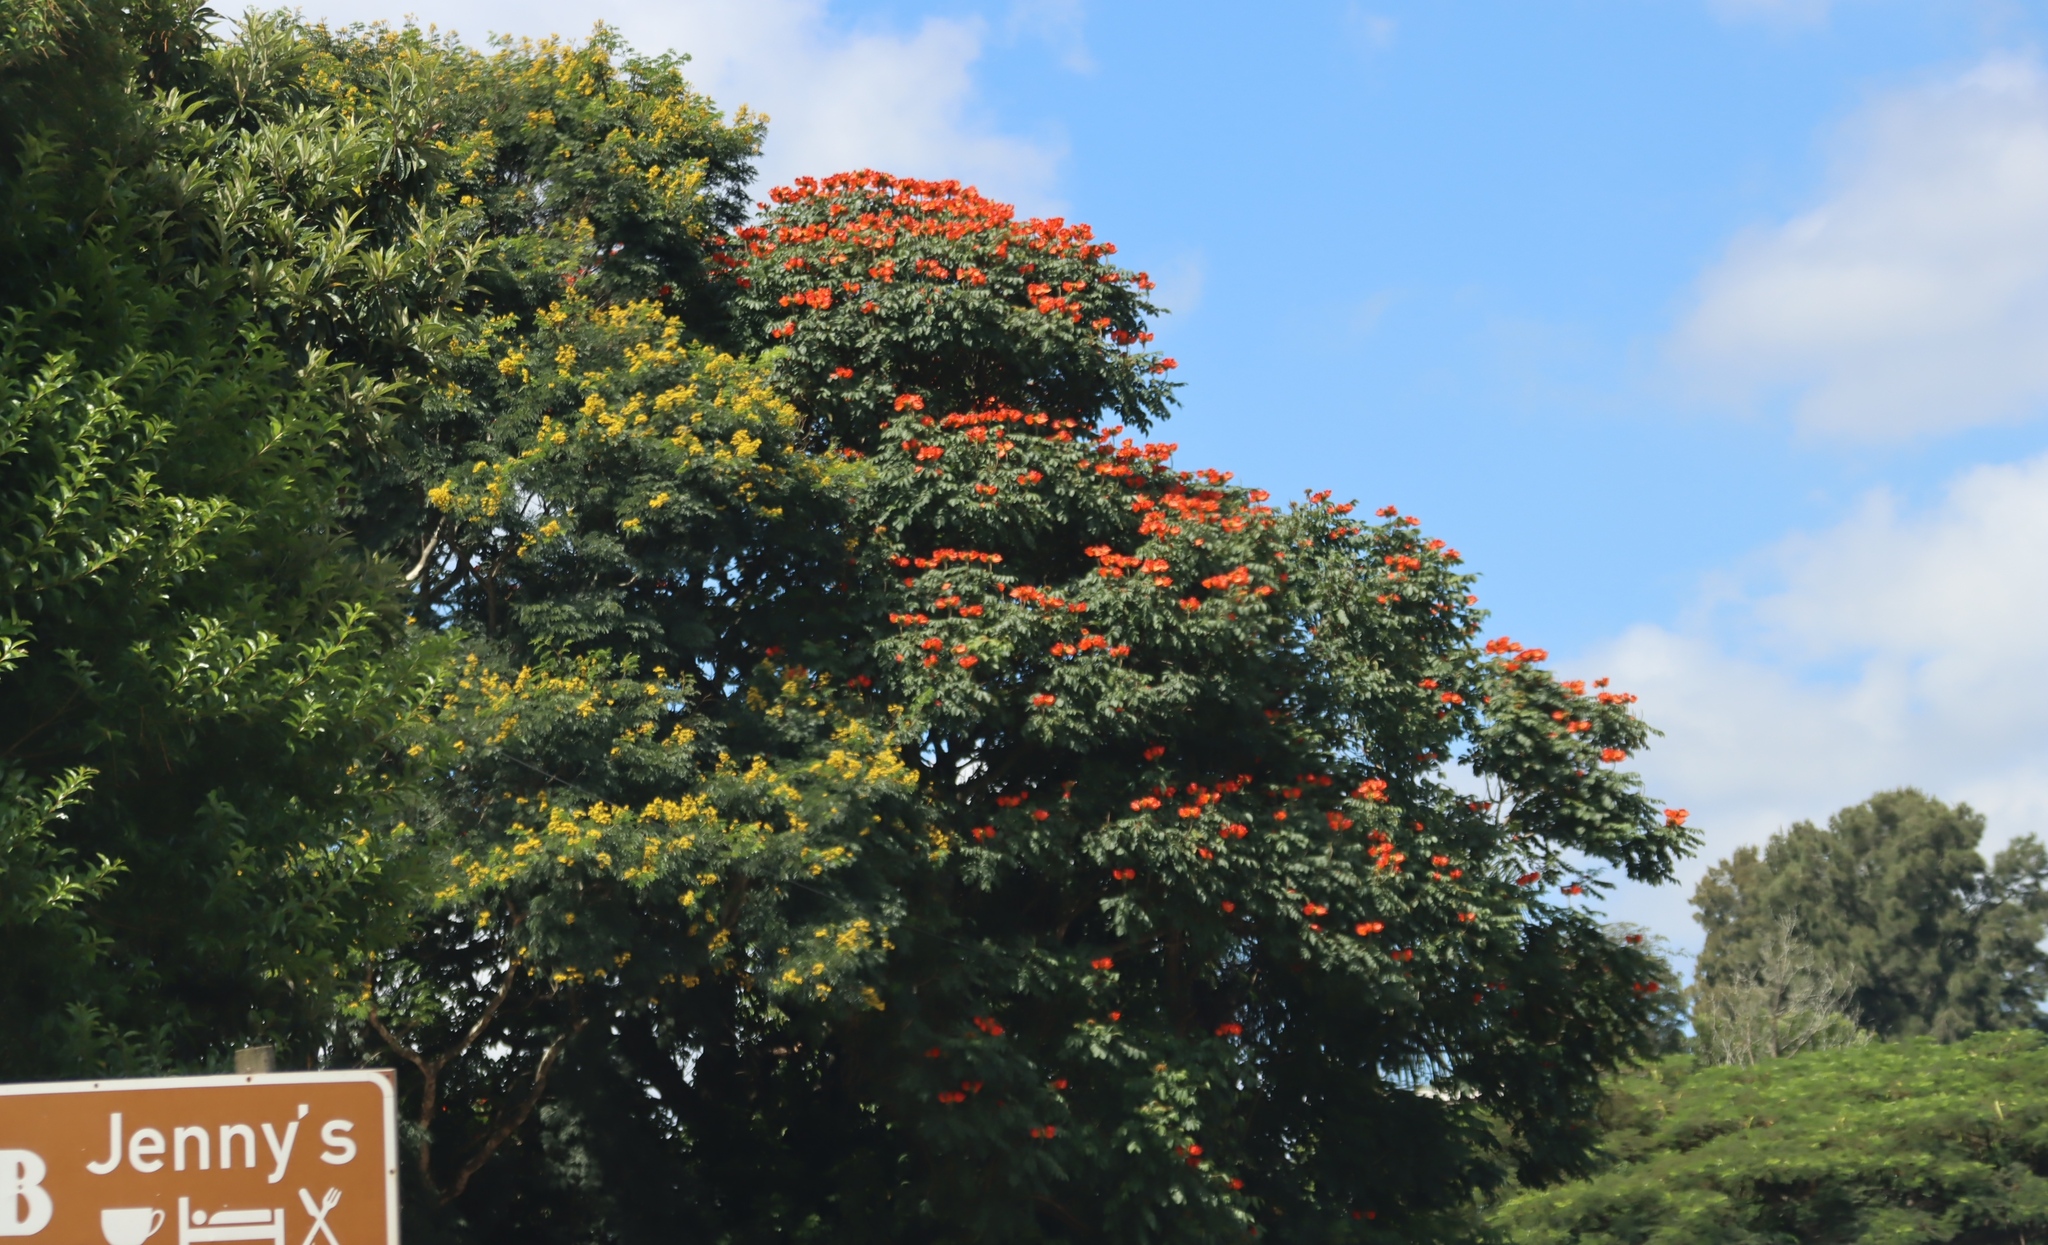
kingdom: Plantae
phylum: Tracheophyta
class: Magnoliopsida
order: Lamiales
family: Bignoniaceae
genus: Spathodea
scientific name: Spathodea campanulata
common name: African tuliptree
